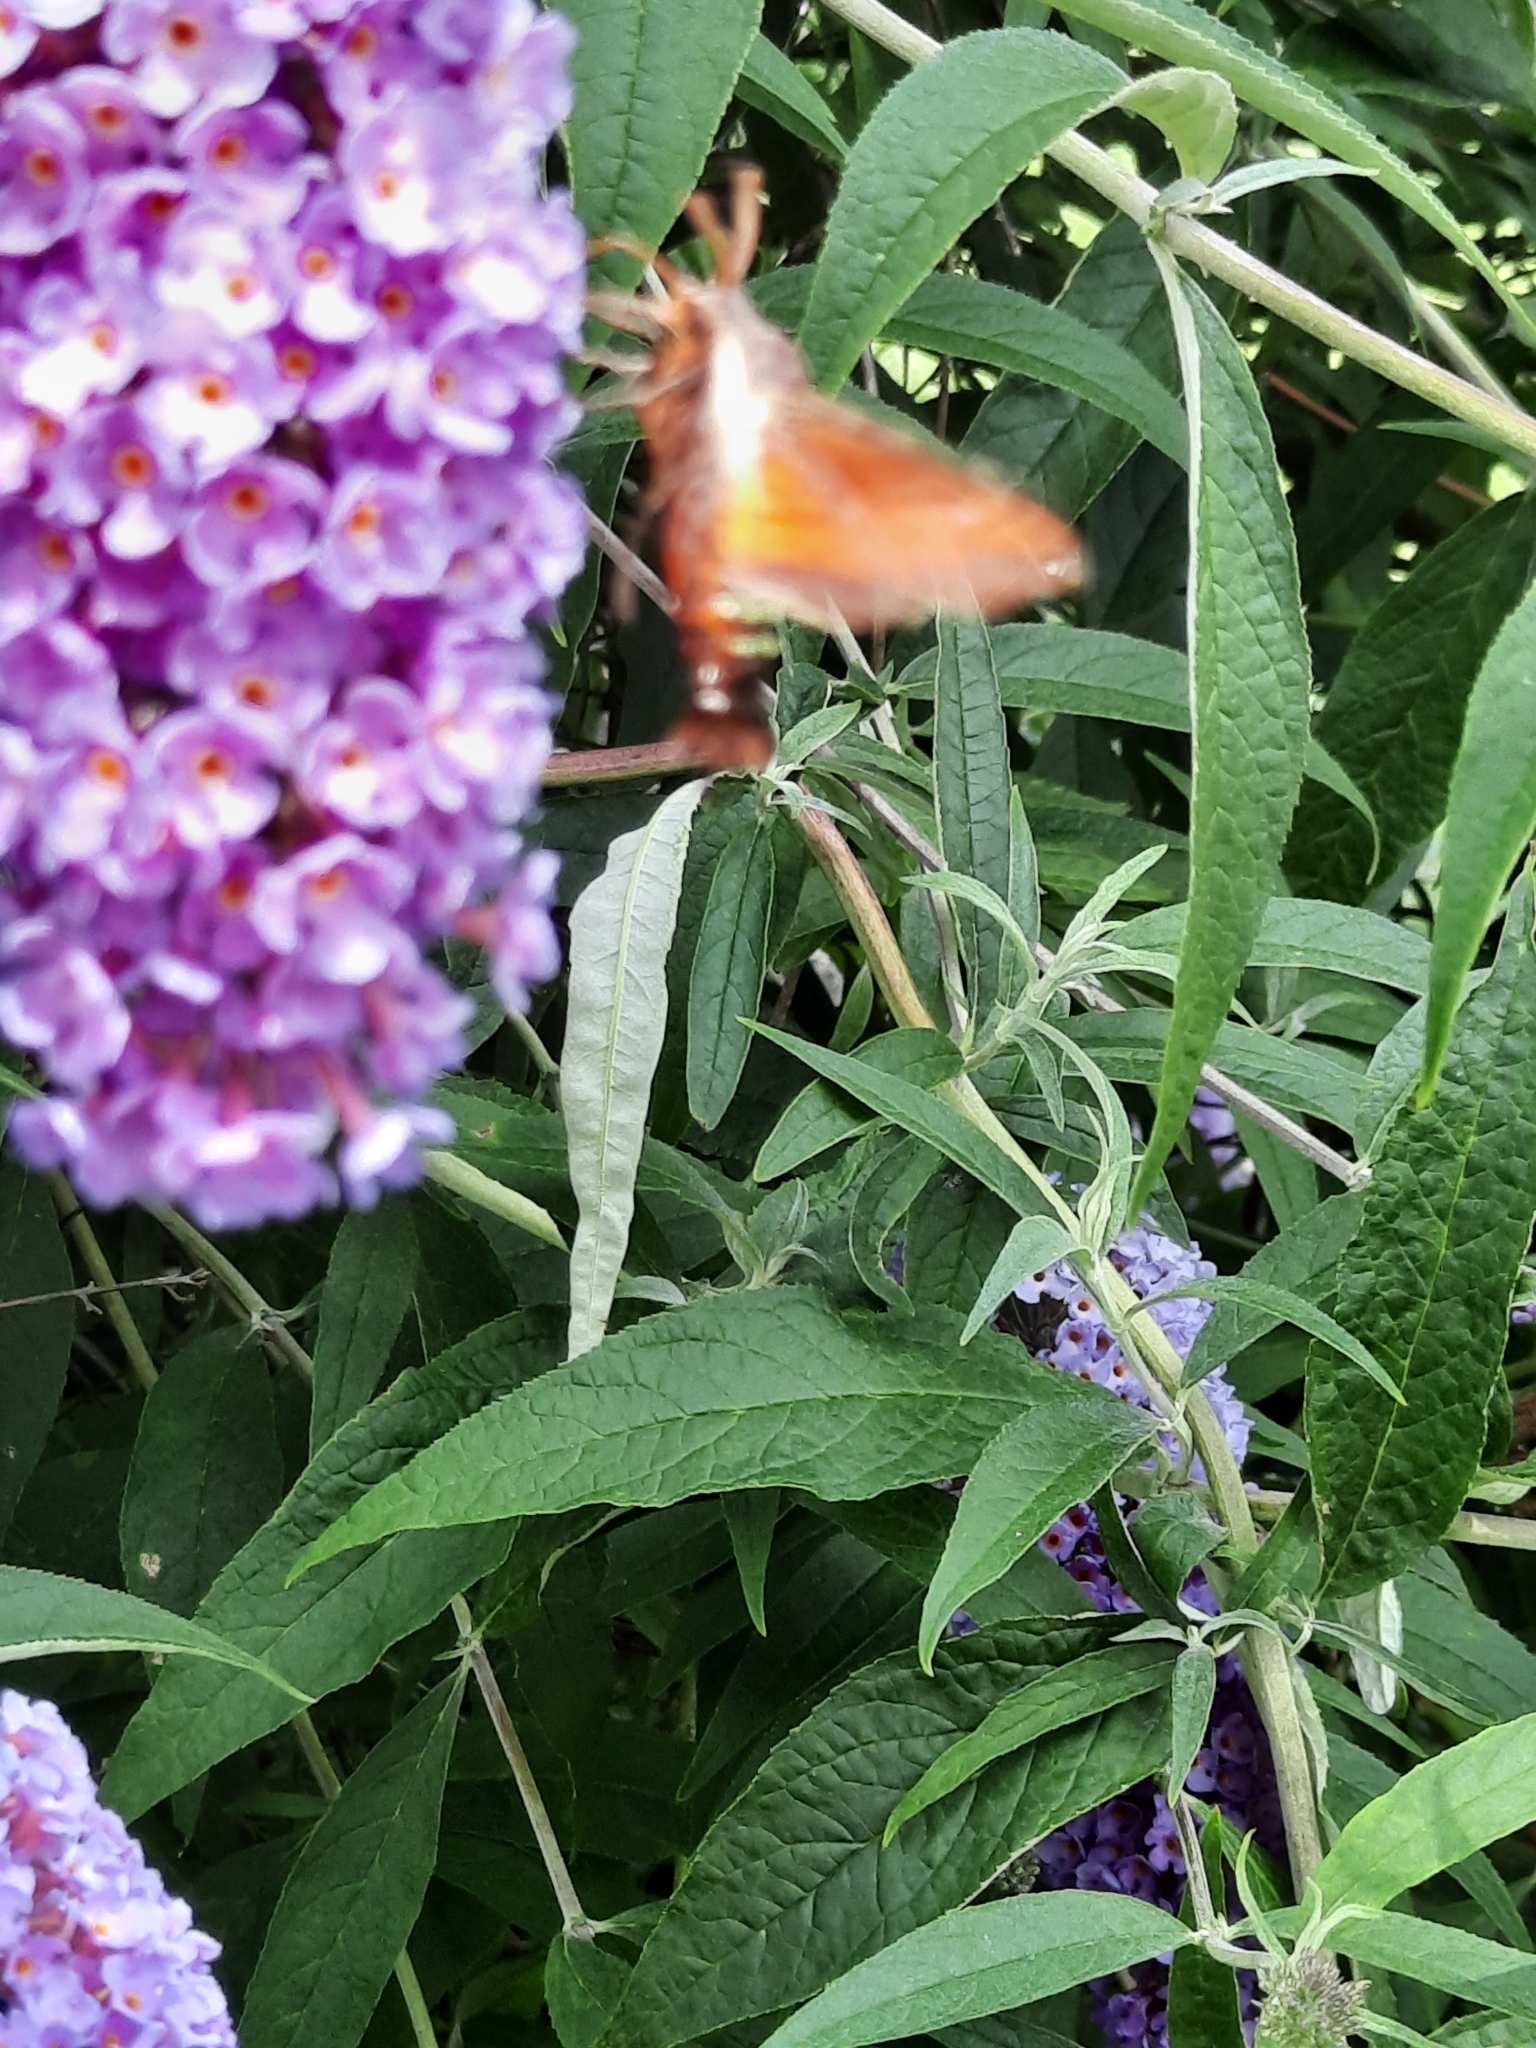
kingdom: Animalia
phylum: Arthropoda
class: Insecta
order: Lepidoptera
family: Sphingidae
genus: Amphion
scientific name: Amphion floridensis
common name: Nessus sphinx
